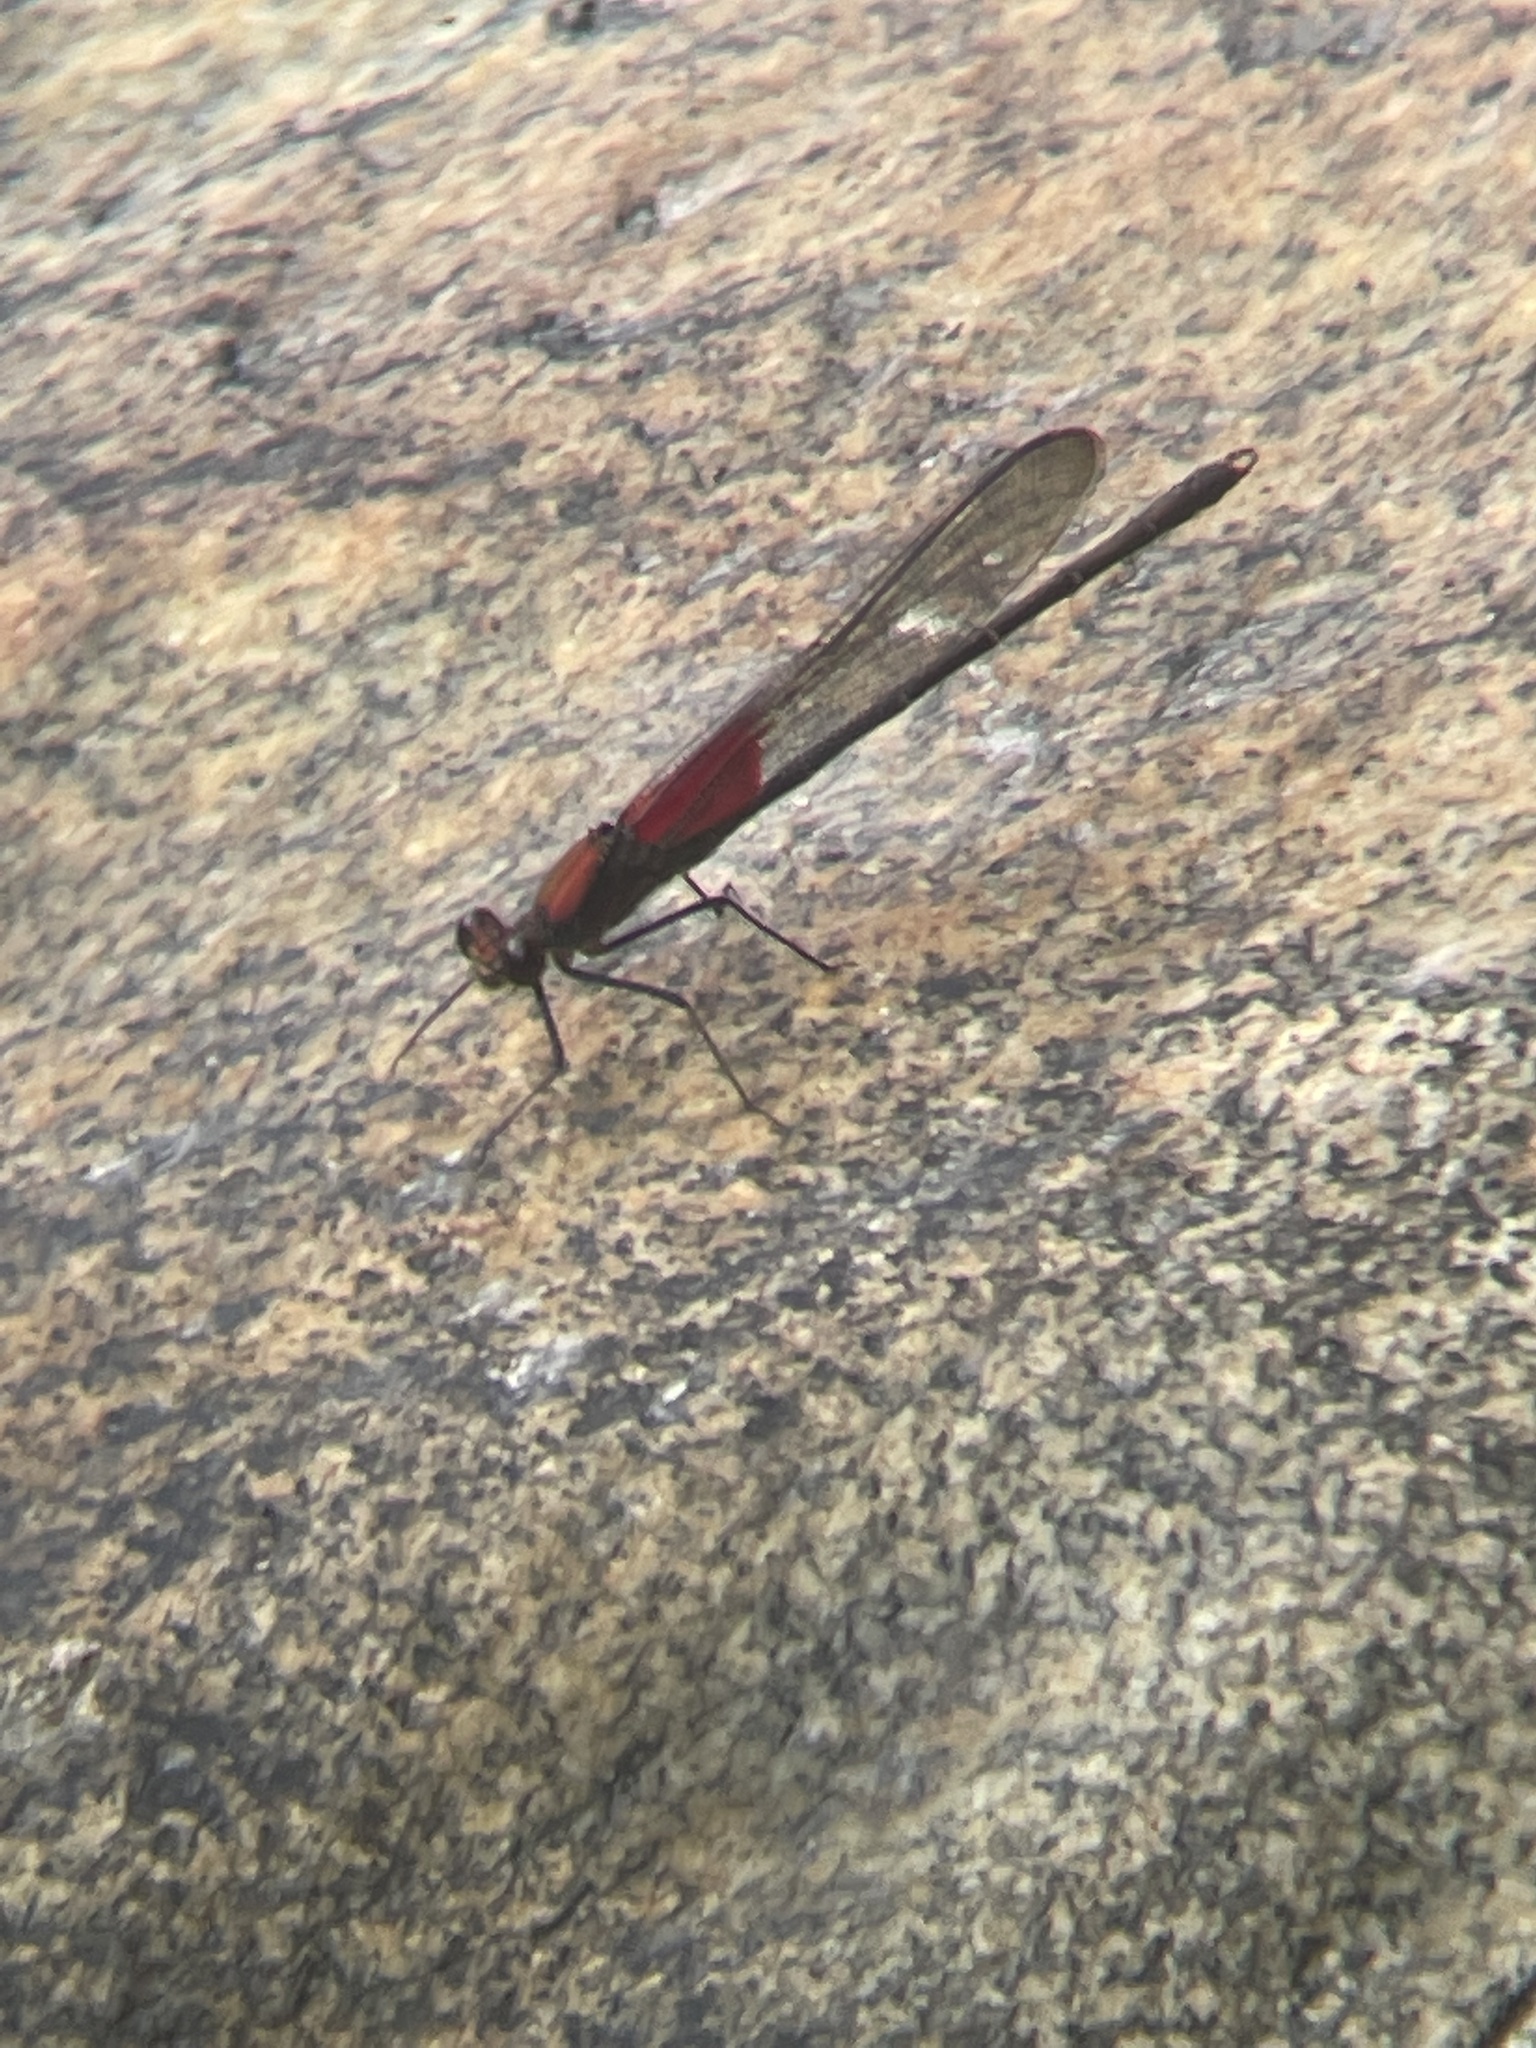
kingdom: Animalia
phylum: Arthropoda
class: Insecta
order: Odonata
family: Calopterygidae
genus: Hetaerina
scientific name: Hetaerina americana
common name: American rubyspot
